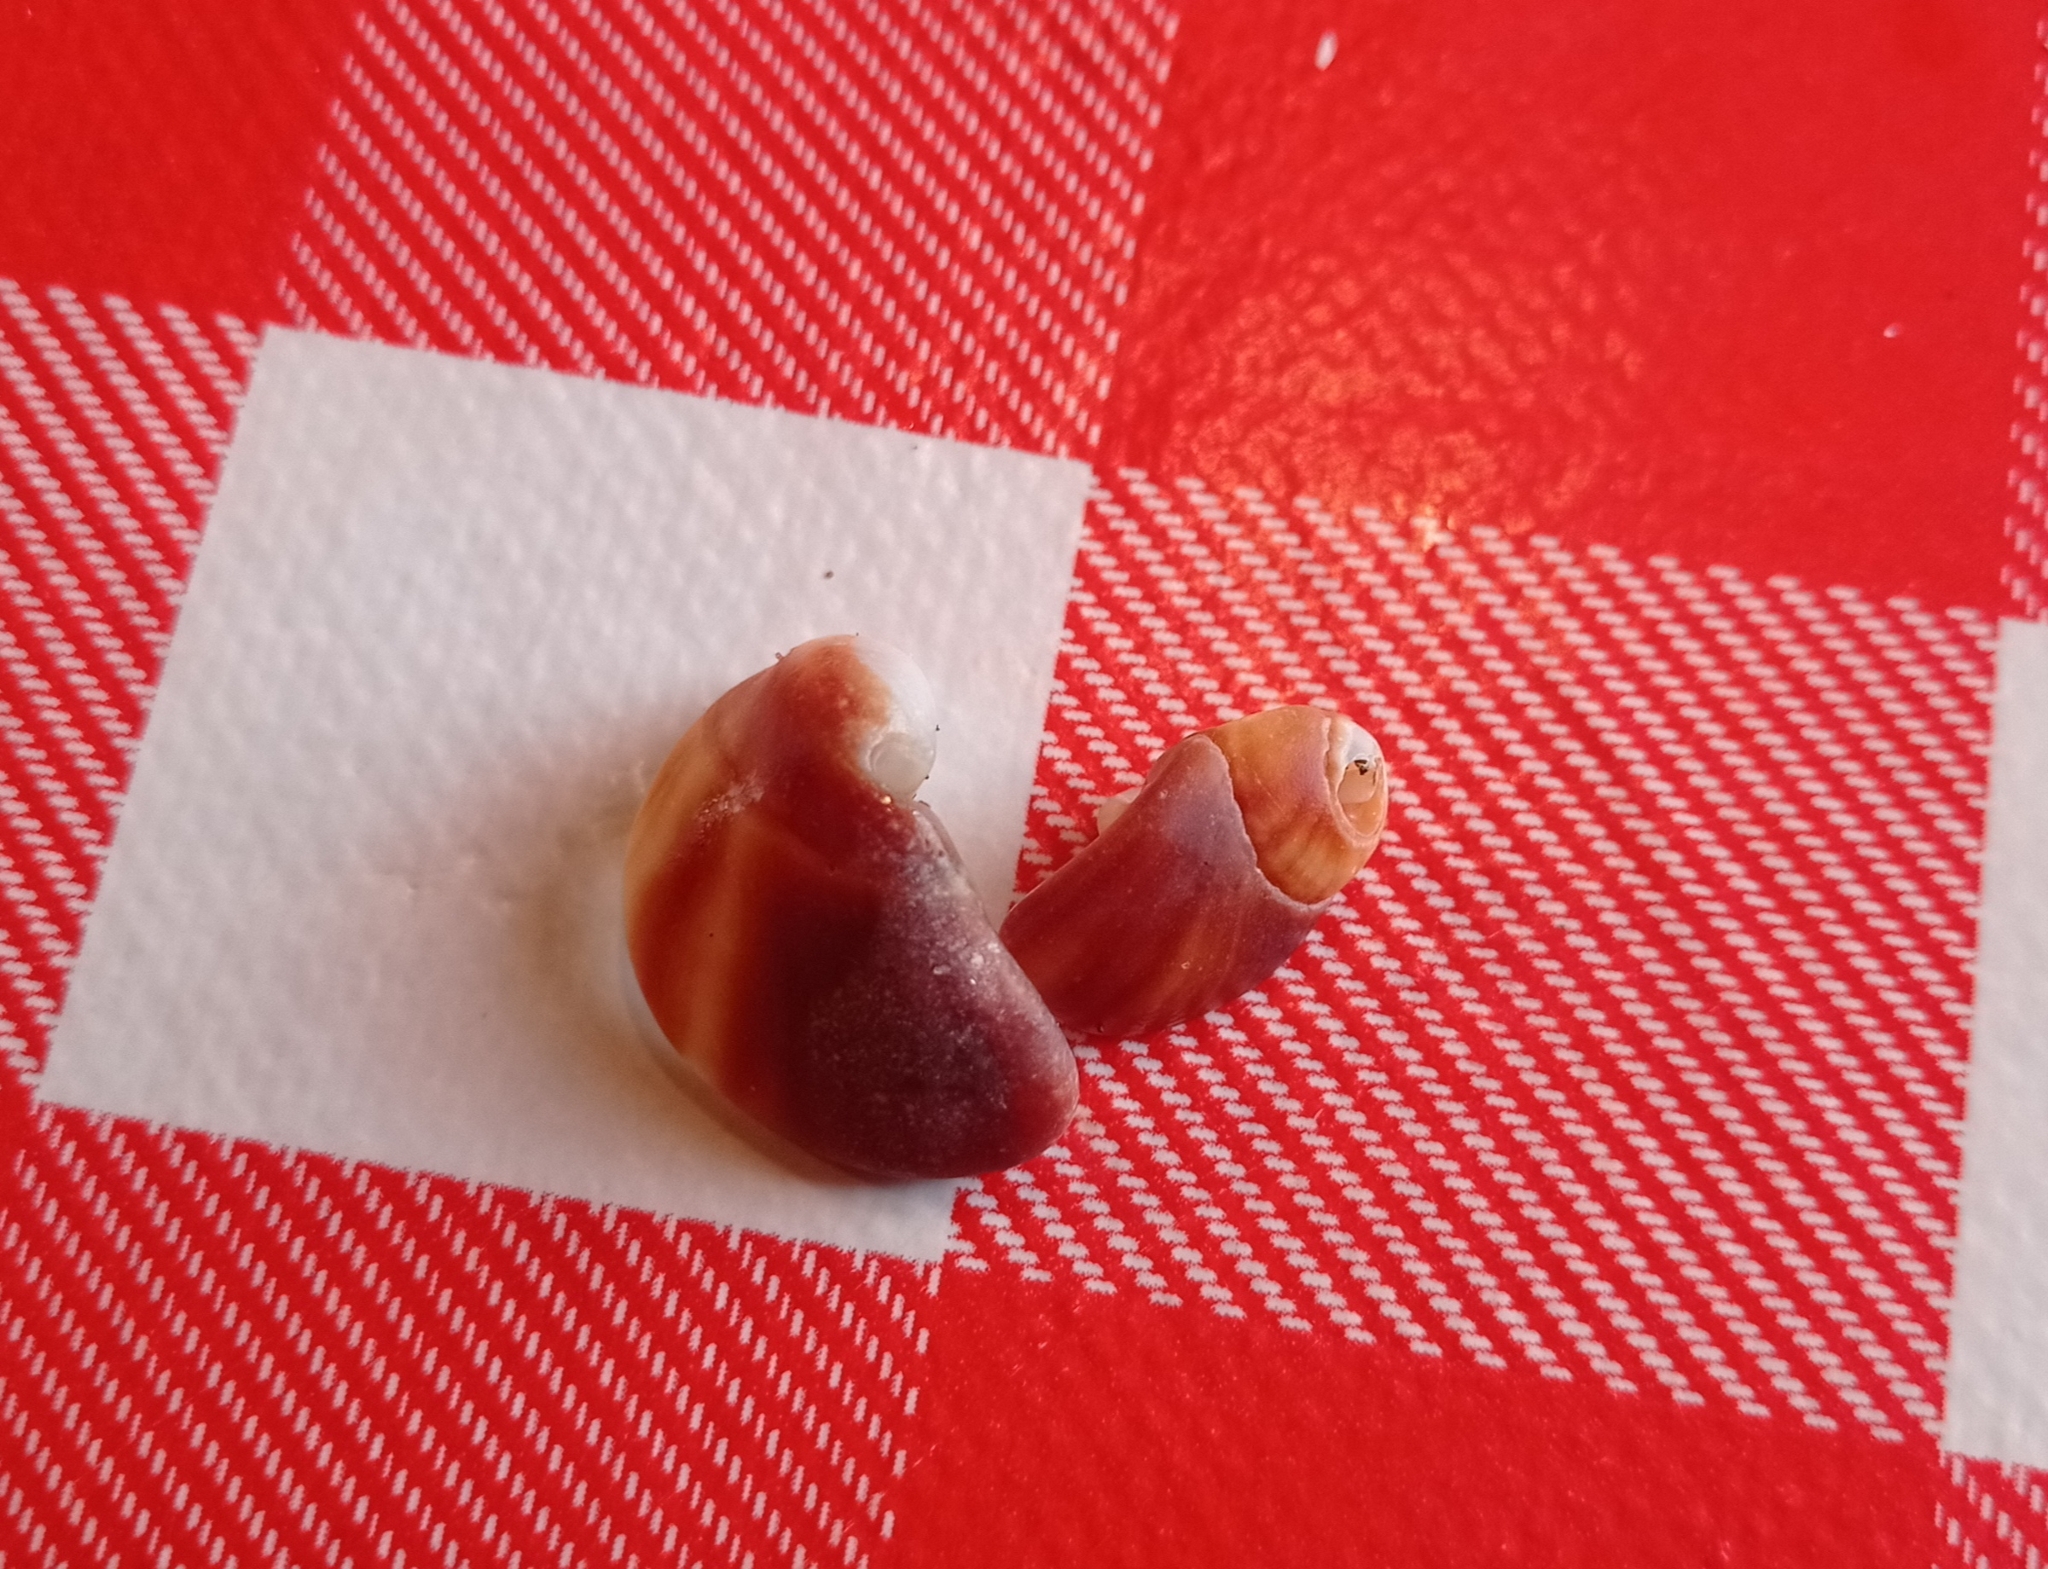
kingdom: Animalia
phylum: Mollusca
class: Gastropoda
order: Neogastropoda
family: Muricidae
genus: Acanthina
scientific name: Acanthina monodon
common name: One-toothed thais
